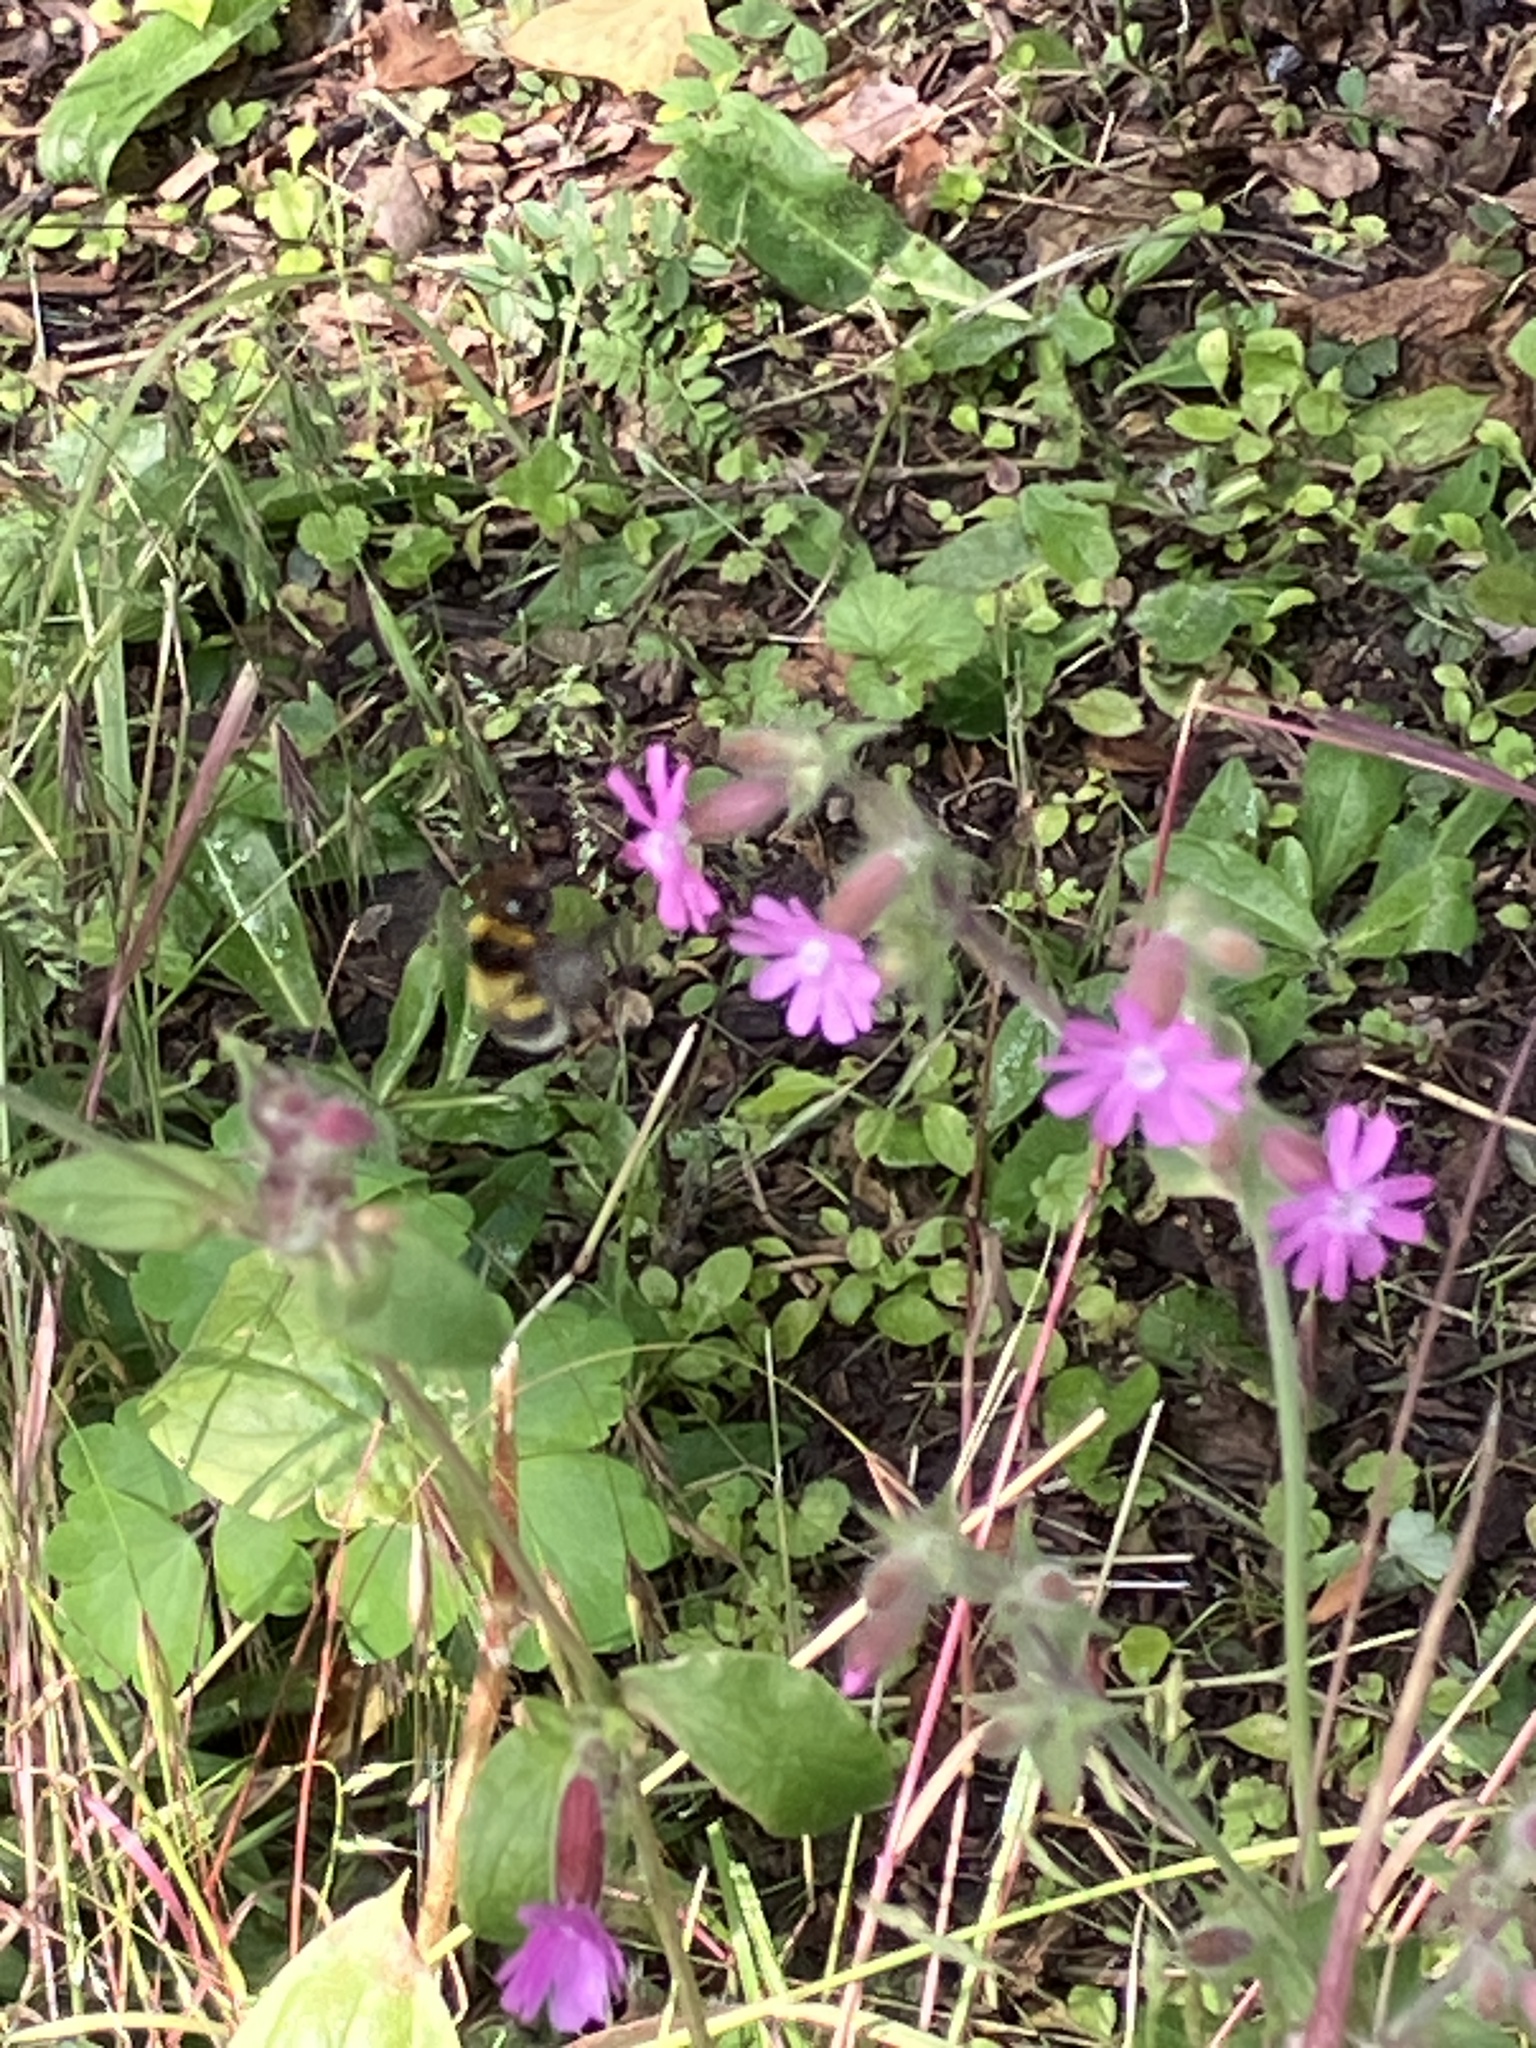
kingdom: Plantae
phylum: Tracheophyta
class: Magnoliopsida
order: Caryophyllales
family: Caryophyllaceae
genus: Silene
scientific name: Silene dioica
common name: Red campion
